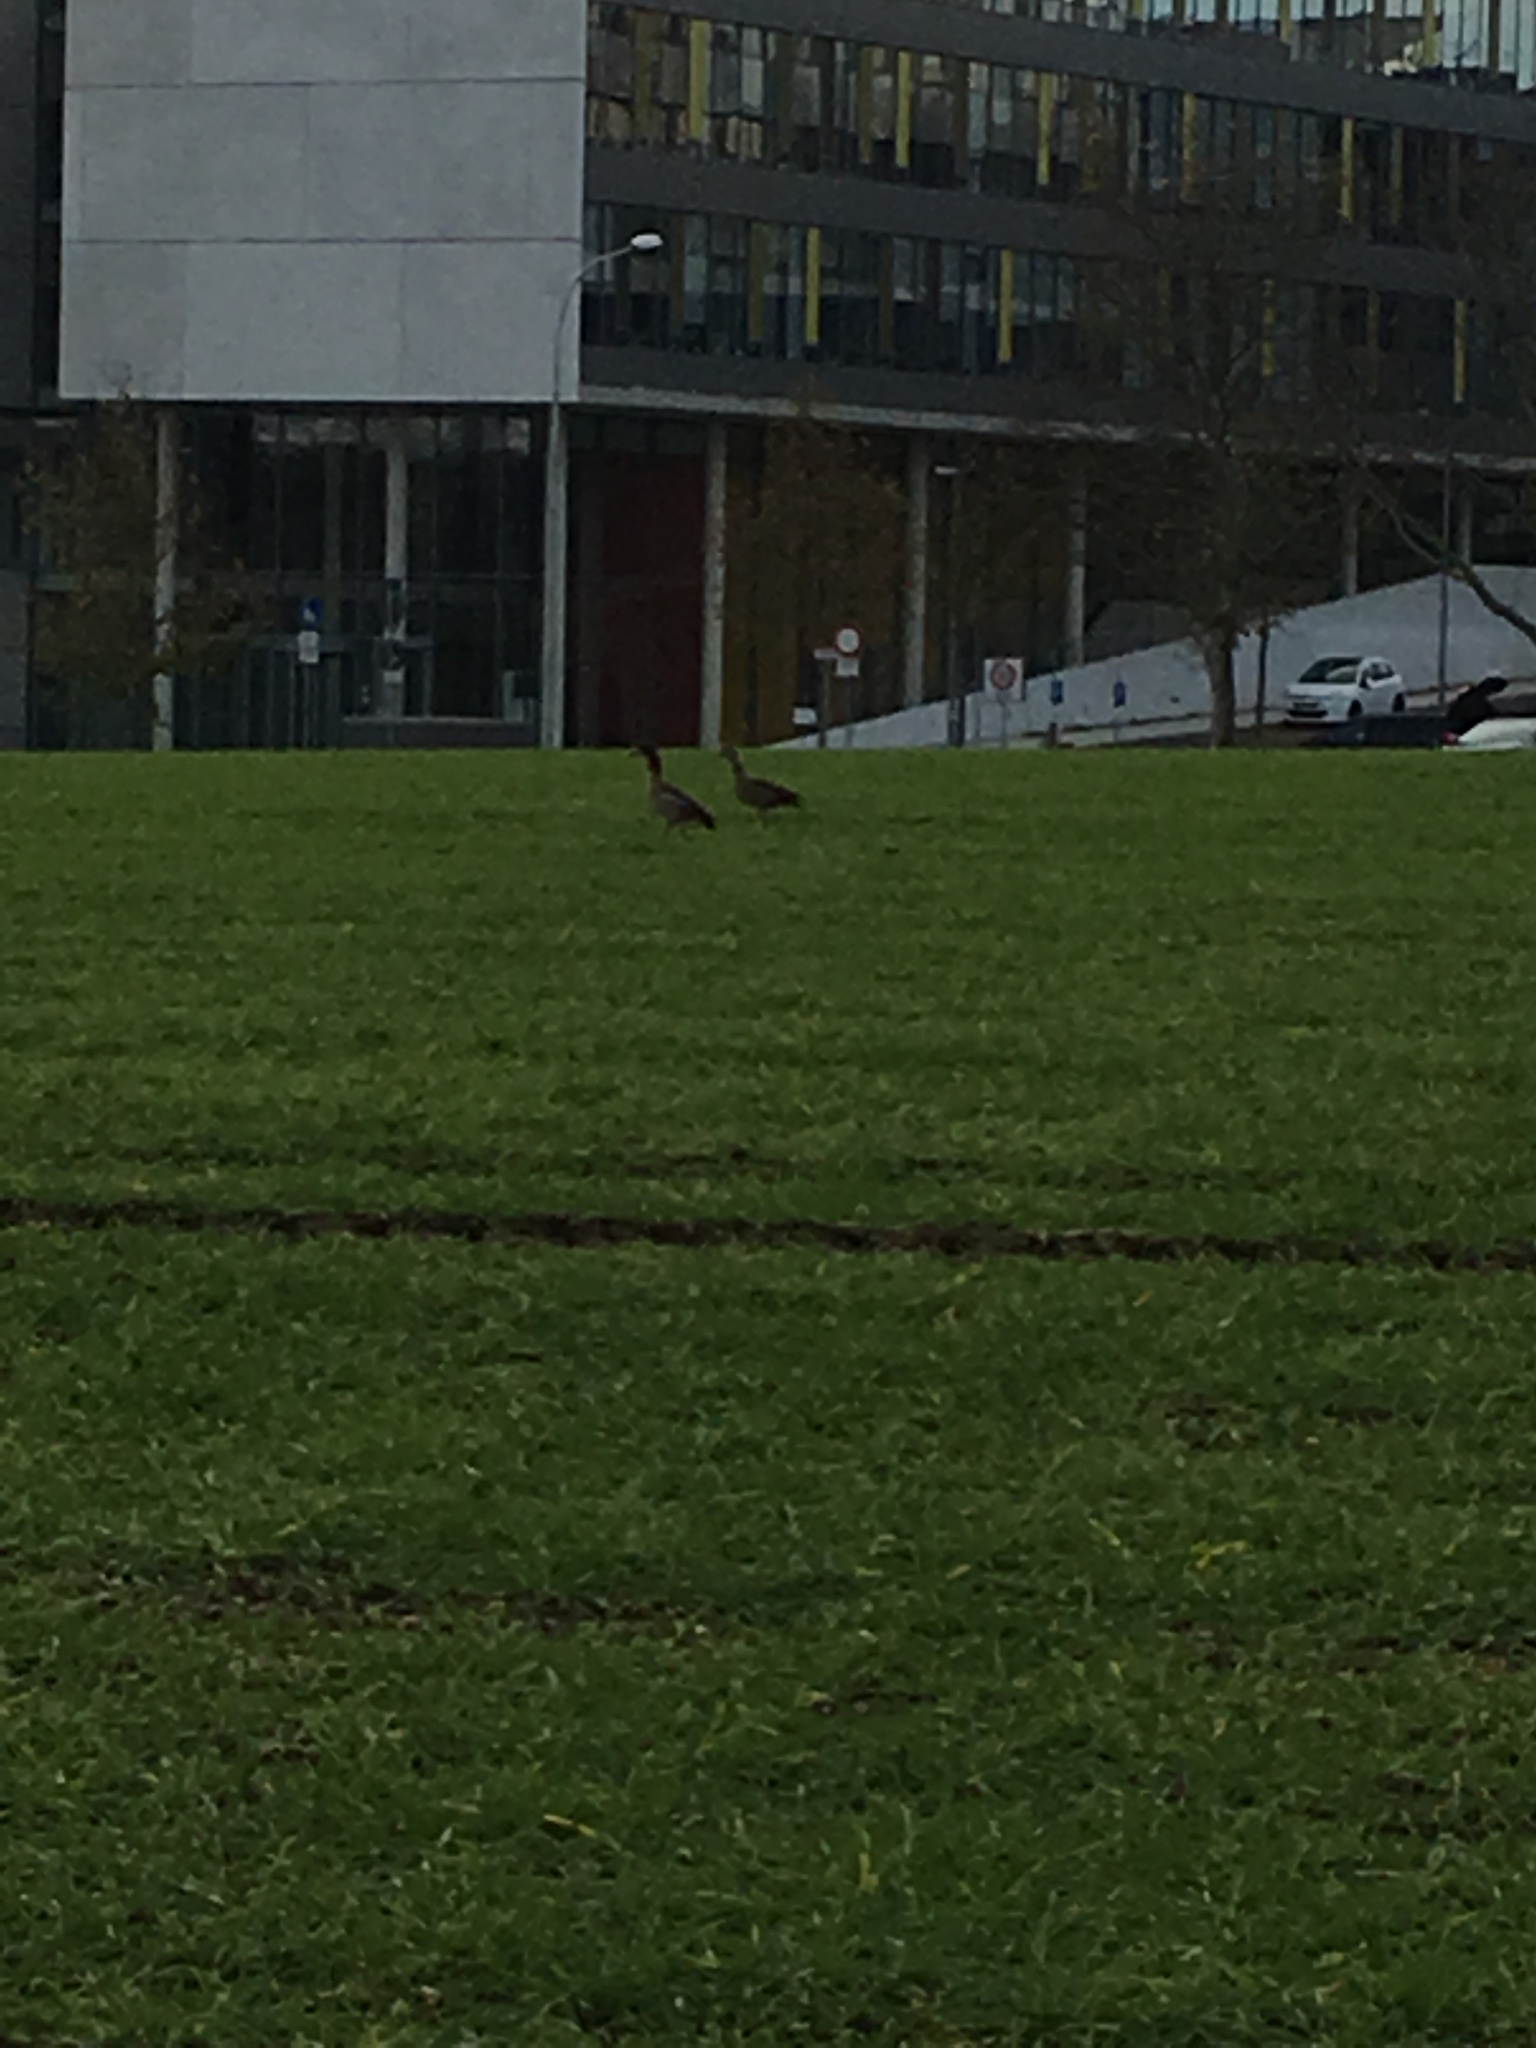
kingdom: Animalia
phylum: Chordata
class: Aves
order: Anseriformes
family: Anatidae
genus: Alopochen
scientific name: Alopochen aegyptiaca
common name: Egyptian goose
